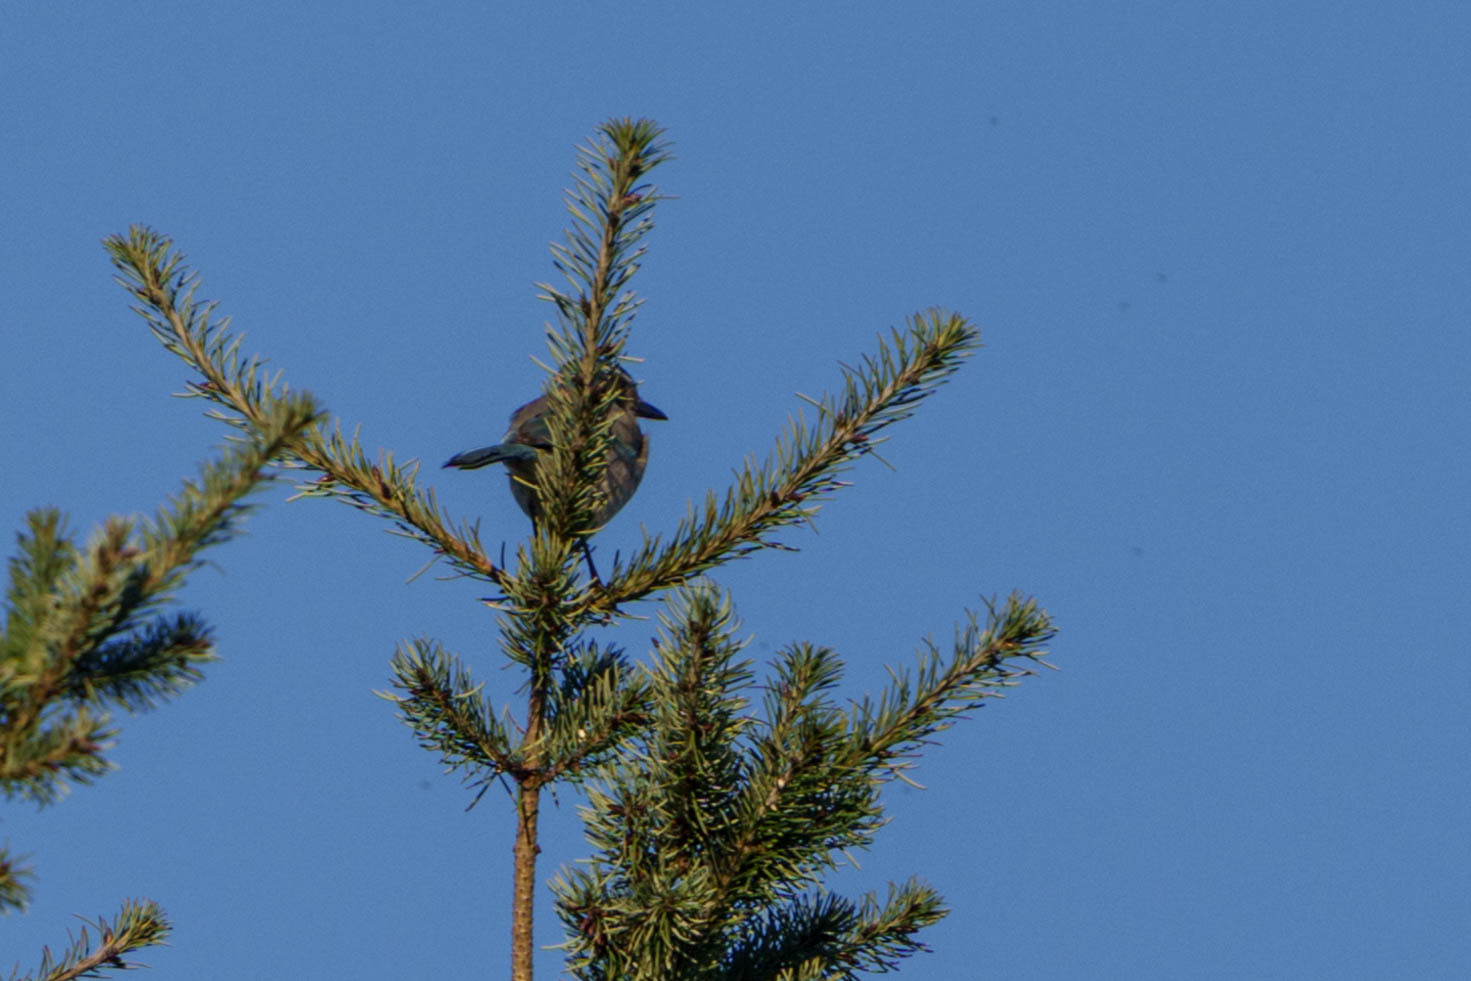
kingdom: Animalia
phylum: Chordata
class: Aves
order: Passeriformes
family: Corvidae
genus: Aphelocoma
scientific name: Aphelocoma californica
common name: California scrub-jay
